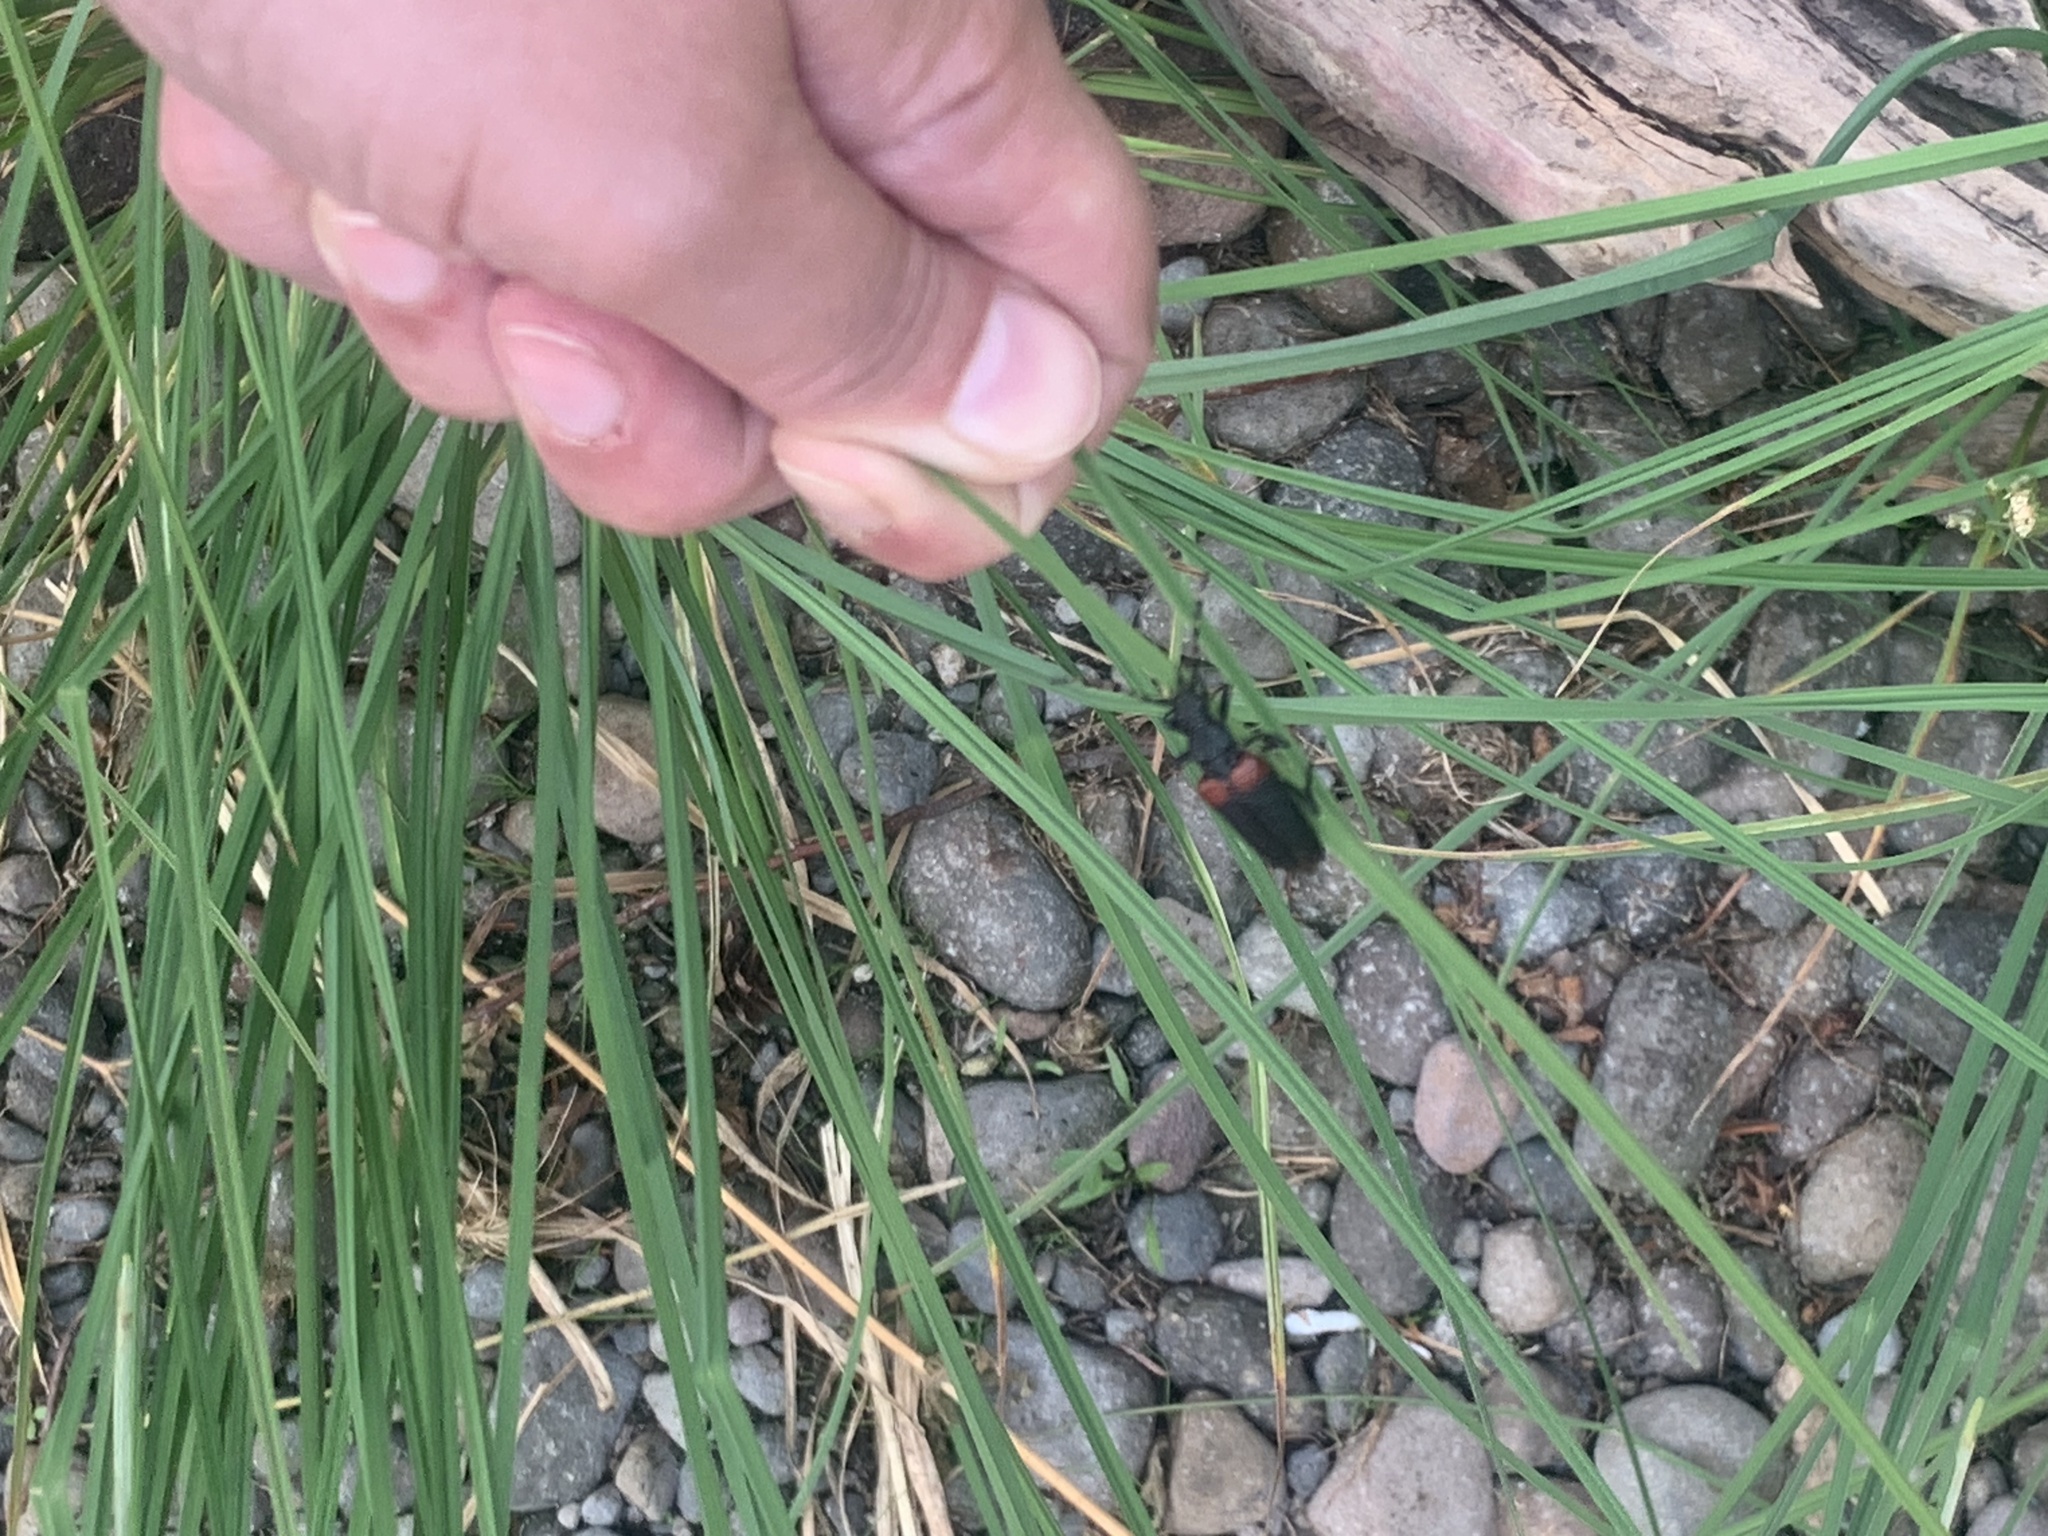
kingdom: Animalia
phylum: Arthropoda
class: Insecta
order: Coleoptera
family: Cerambycidae
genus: Stictoleptura
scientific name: Stictoleptura canadensis
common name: Red-shouldered pine borer
